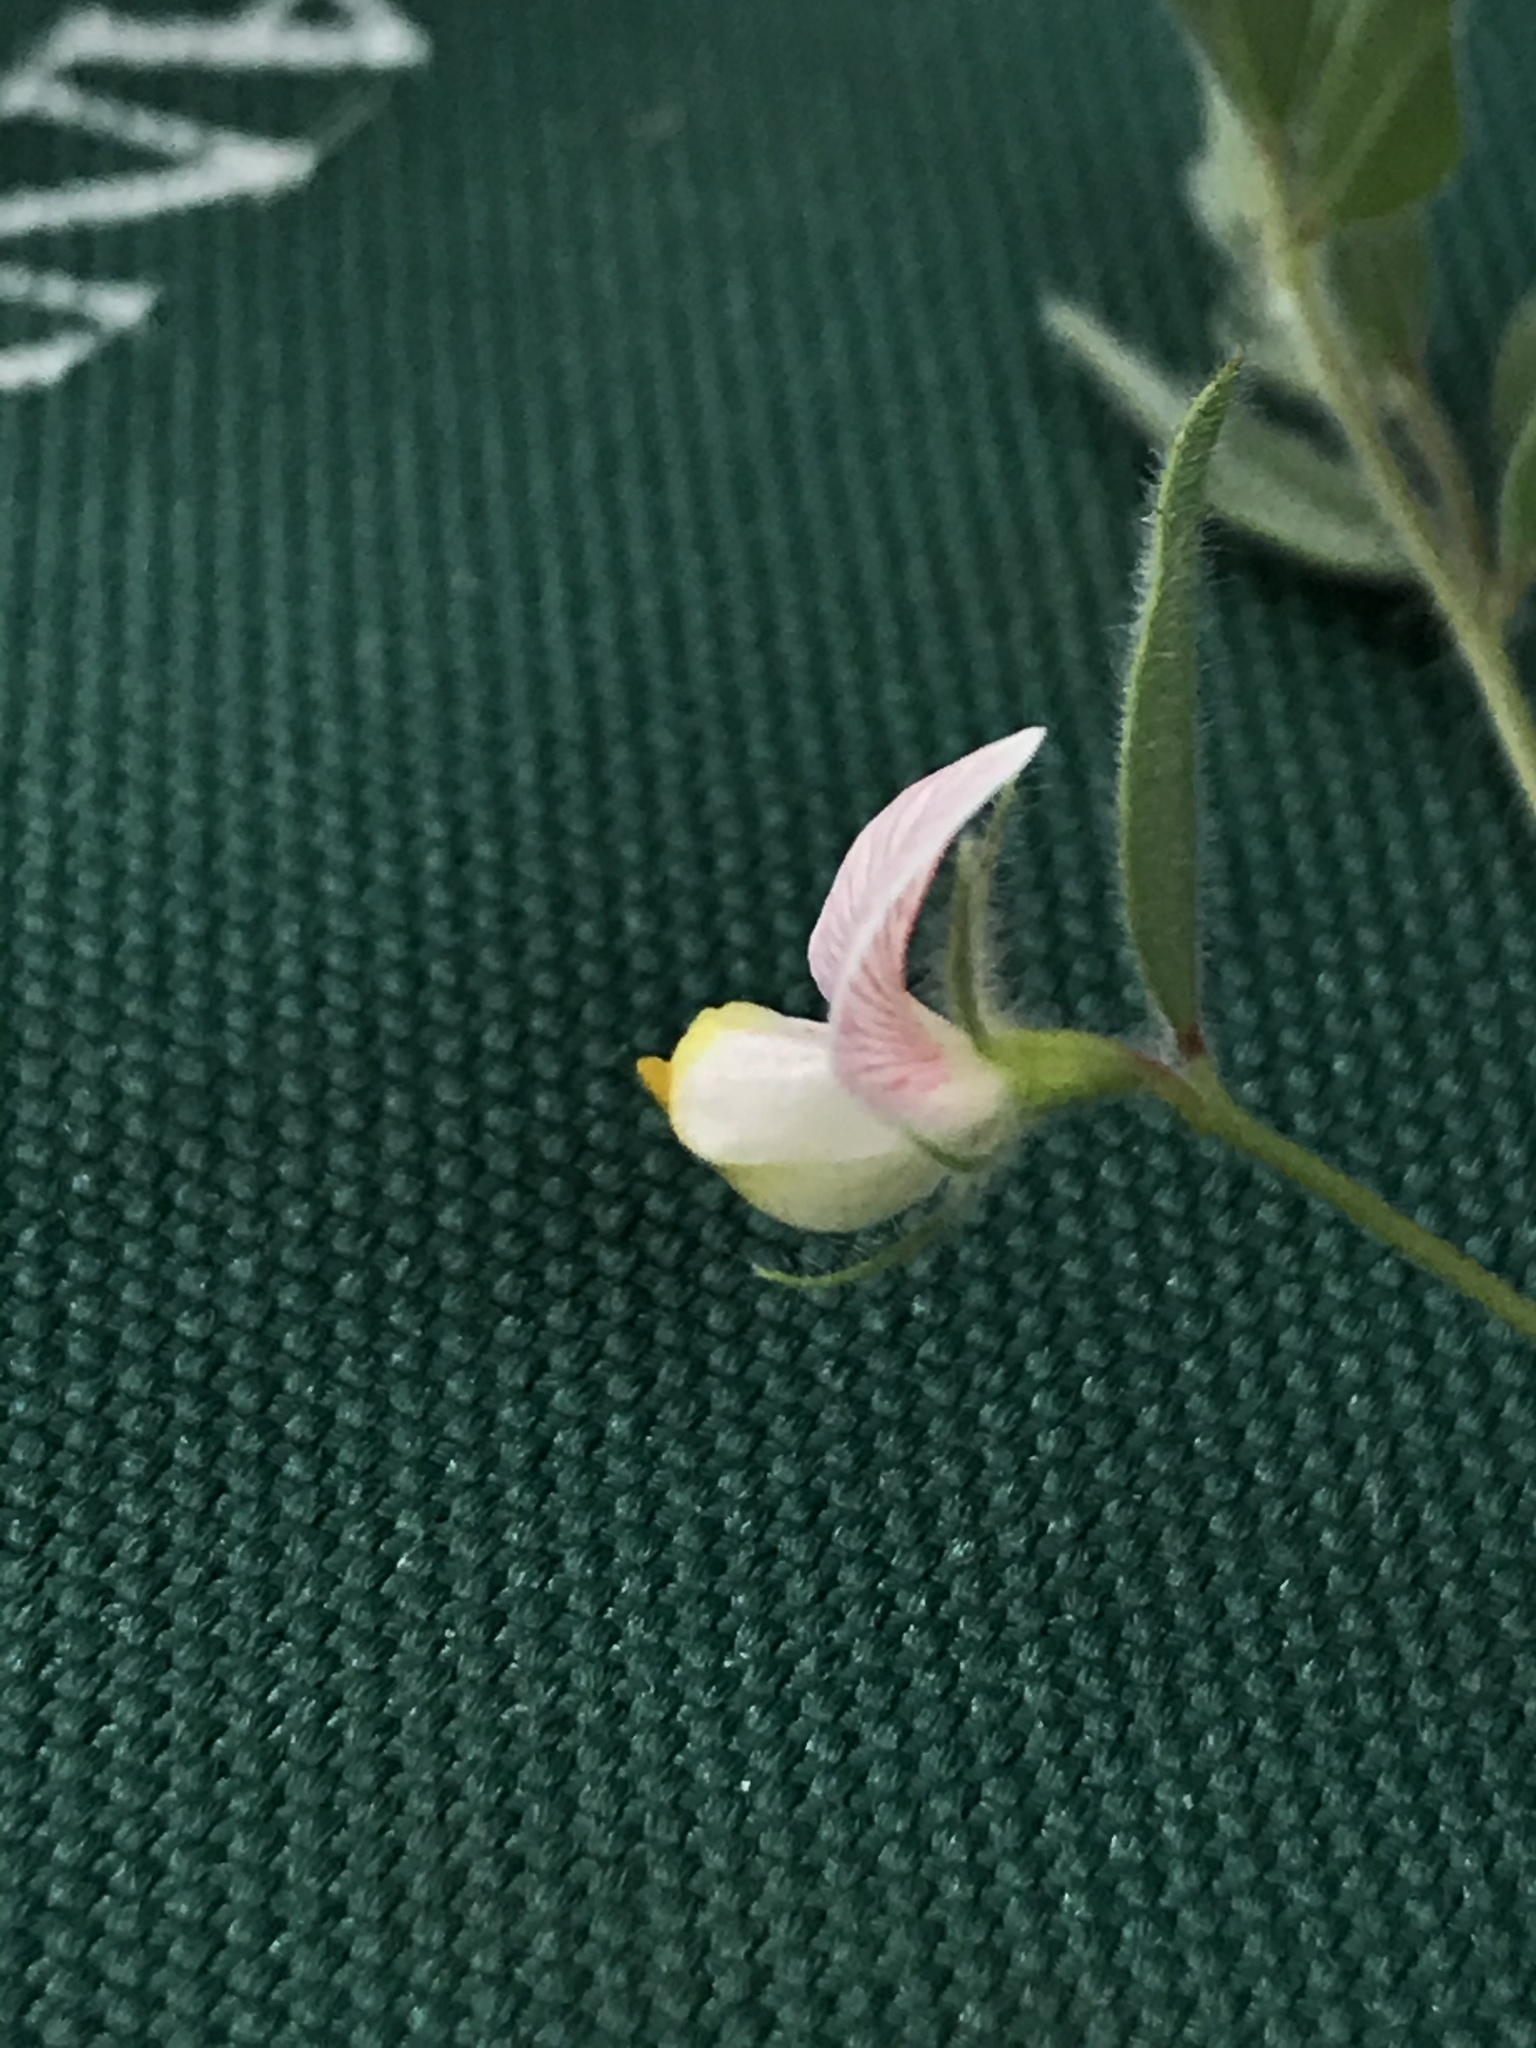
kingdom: Plantae
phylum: Tracheophyta
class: Magnoliopsida
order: Fabales
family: Fabaceae
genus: Acmispon
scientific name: Acmispon americanus
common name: American bird's-foot trefoil
